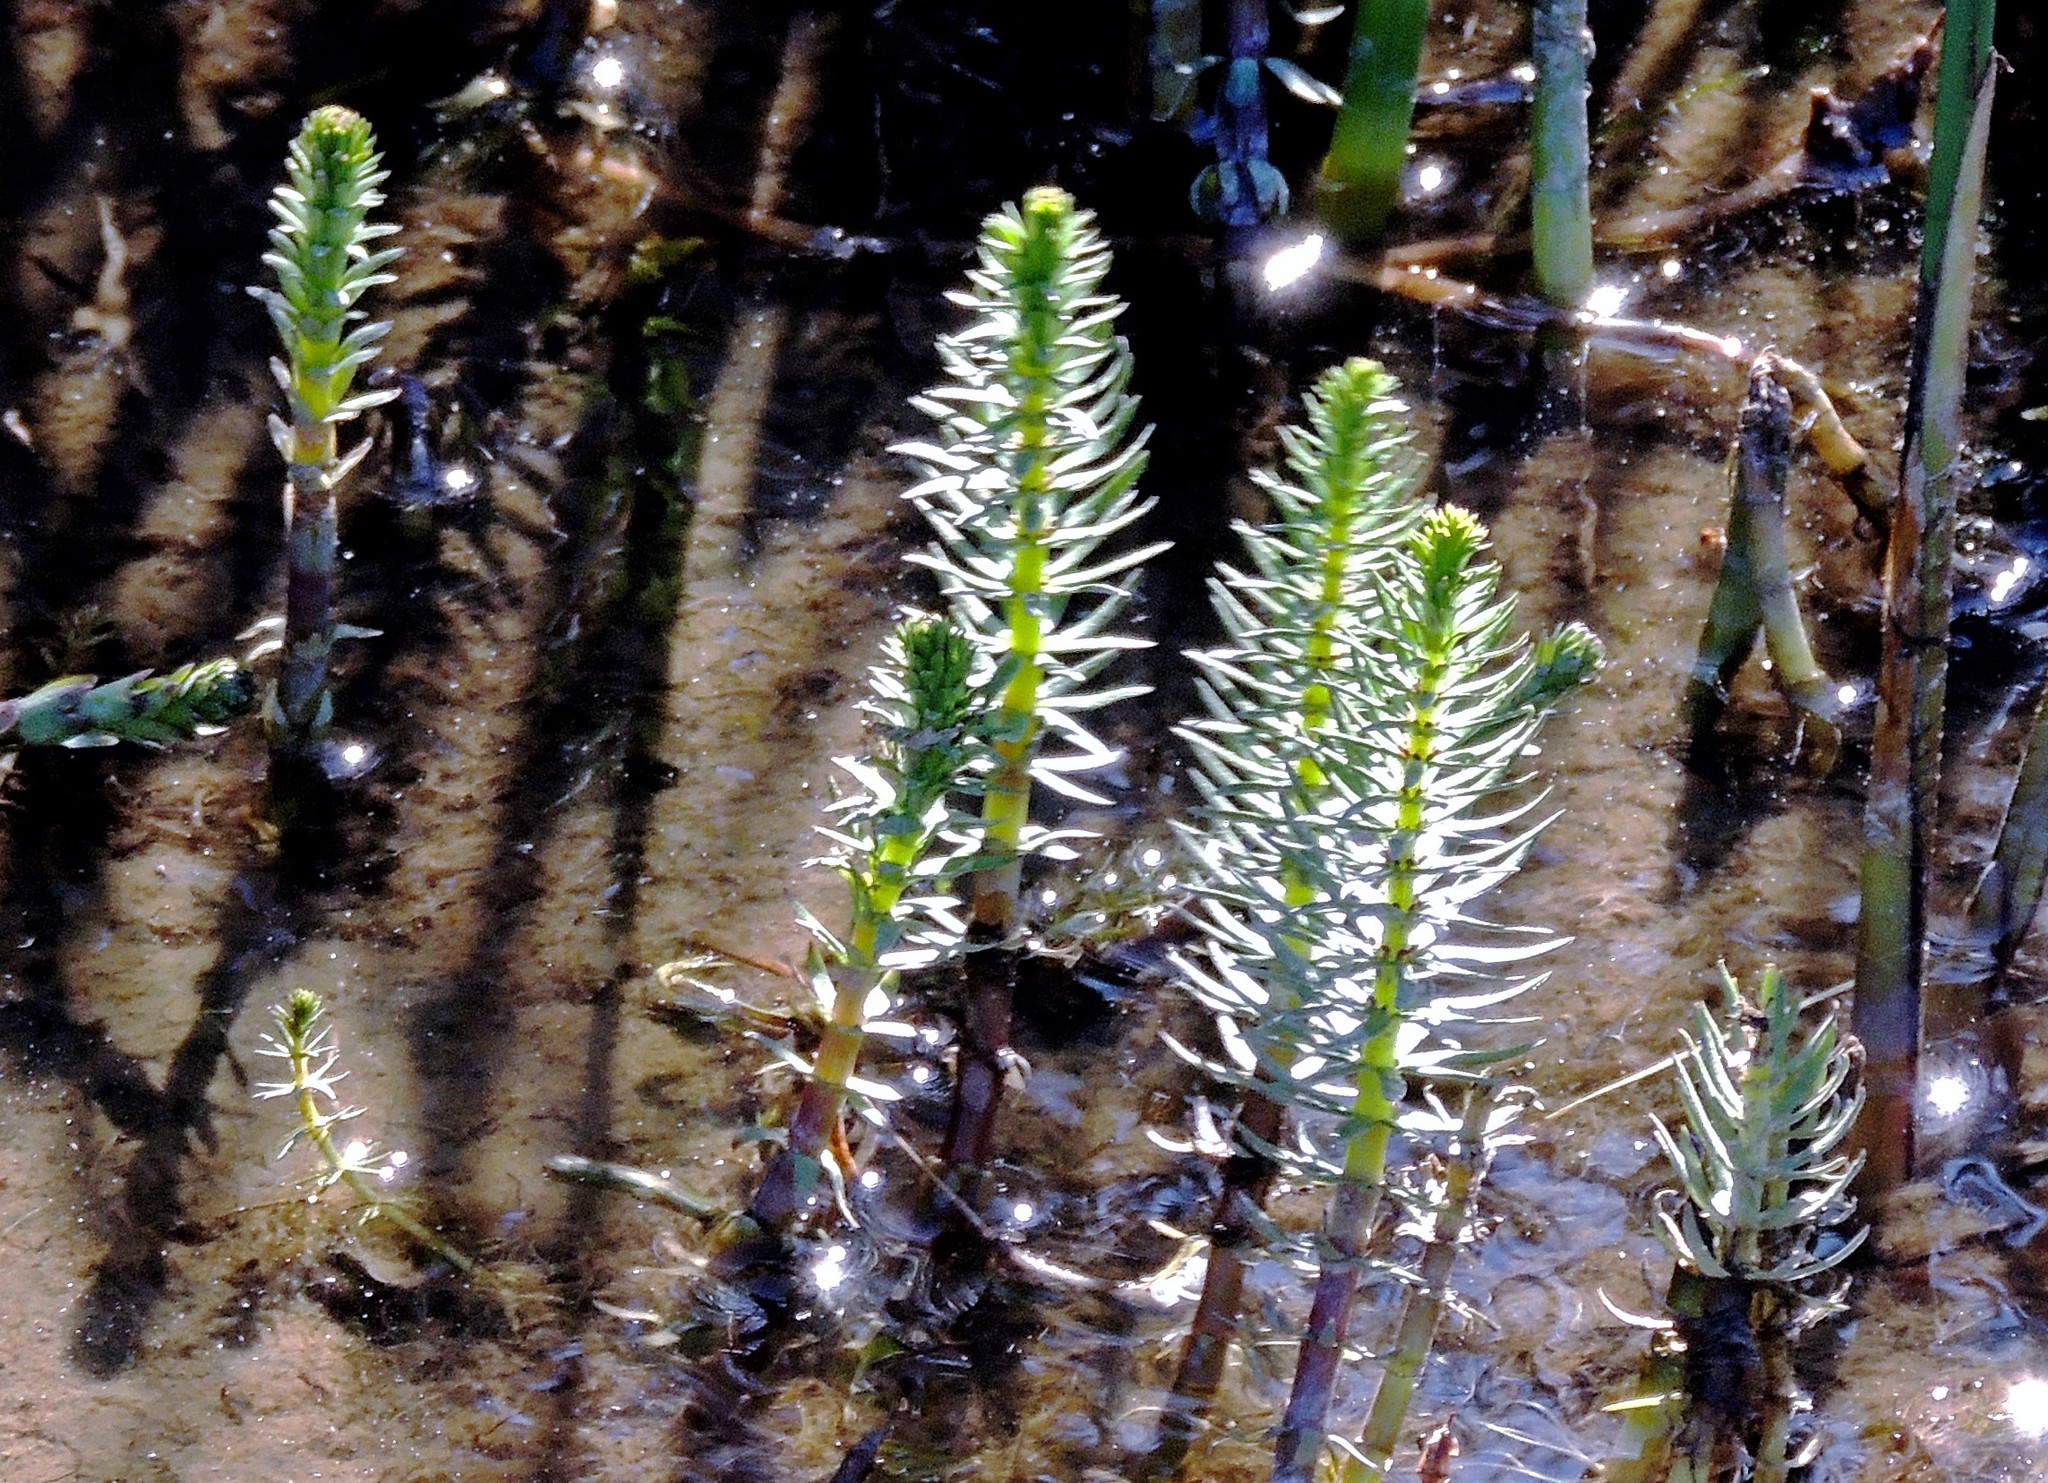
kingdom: Plantae
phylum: Tracheophyta
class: Magnoliopsida
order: Lamiales
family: Plantaginaceae
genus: Hippuris
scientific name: Hippuris vulgaris
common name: Mare's-tail
